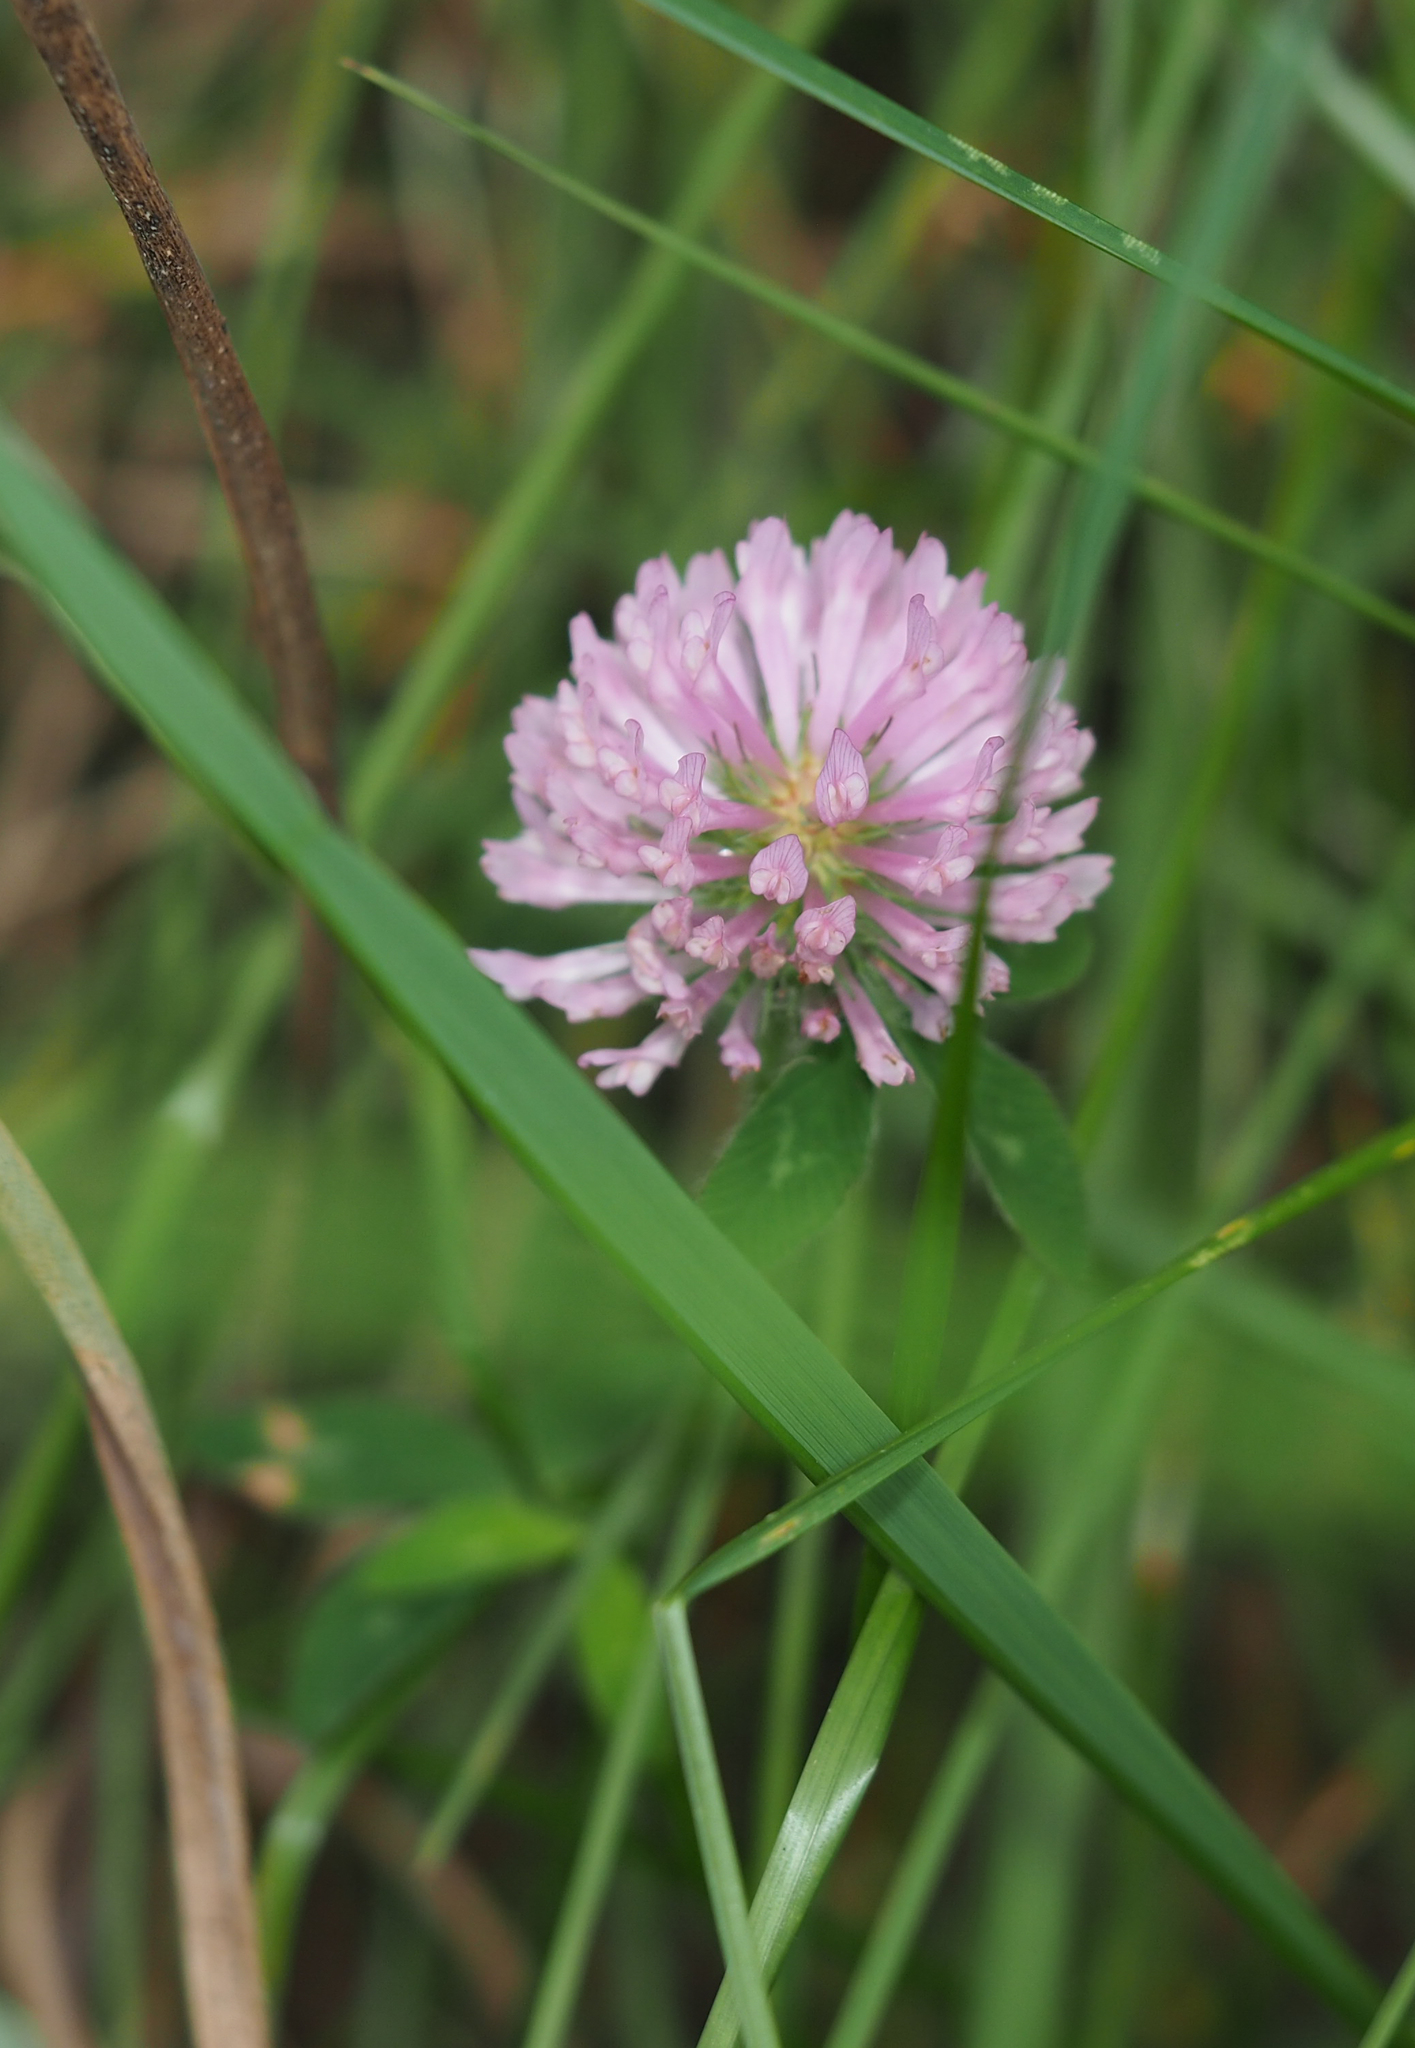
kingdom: Plantae
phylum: Tracheophyta
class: Magnoliopsida
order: Fabales
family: Fabaceae
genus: Trifolium
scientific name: Trifolium pratense
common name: Red clover
